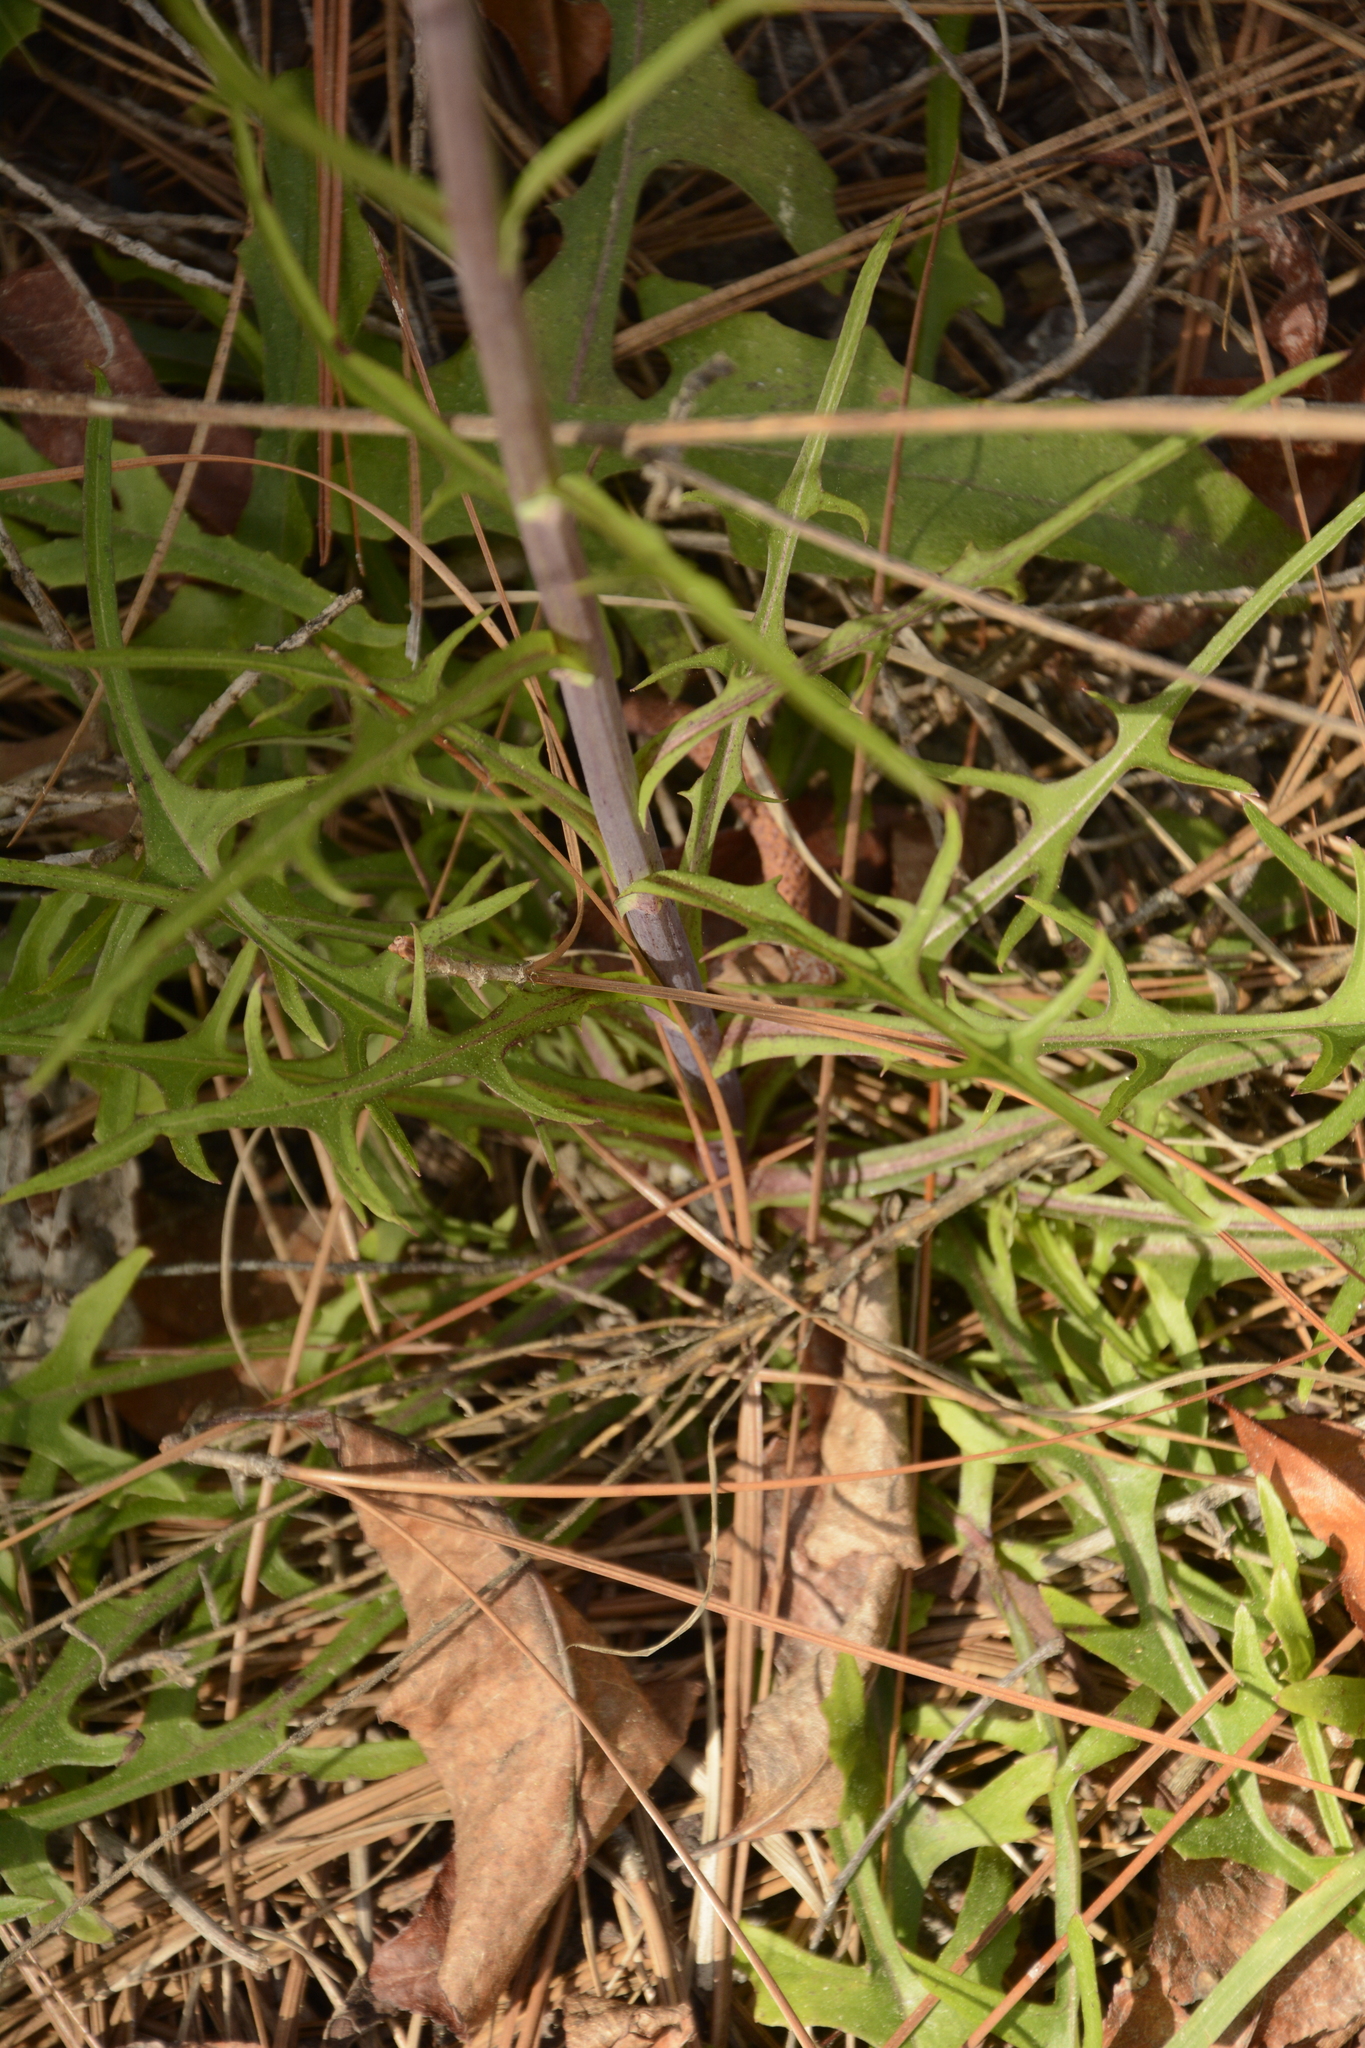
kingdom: Plantae
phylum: Tracheophyta
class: Magnoliopsida
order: Asterales
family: Asteraceae
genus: Lactuca
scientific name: Lactuca graminifolia
